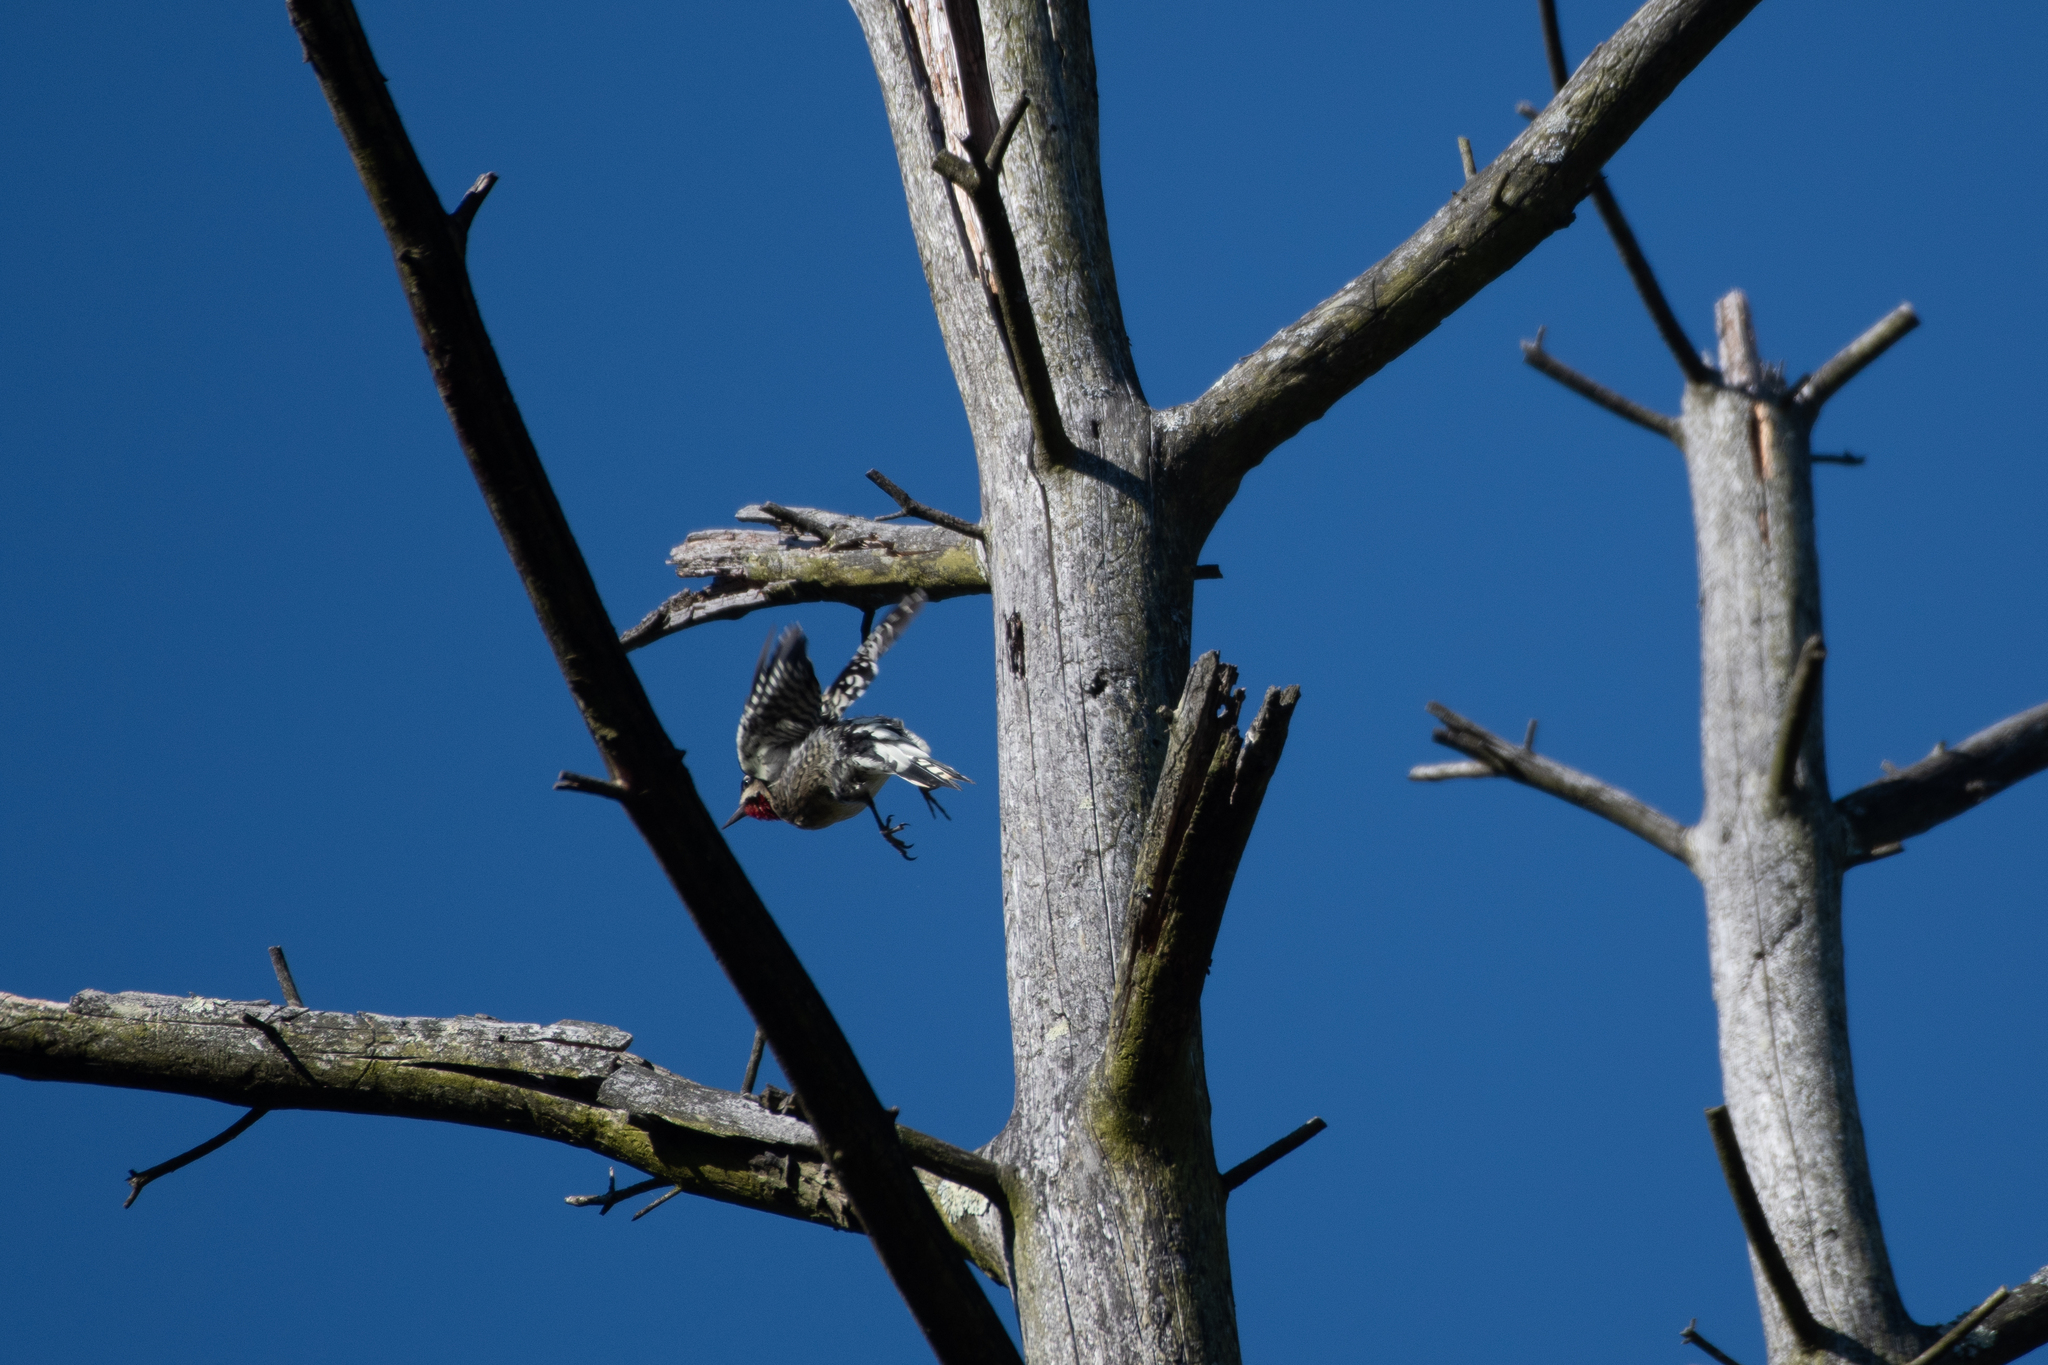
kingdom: Animalia
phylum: Chordata
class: Aves
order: Piciformes
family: Picidae
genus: Sphyrapicus
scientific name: Sphyrapicus varius
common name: Yellow-bellied sapsucker
